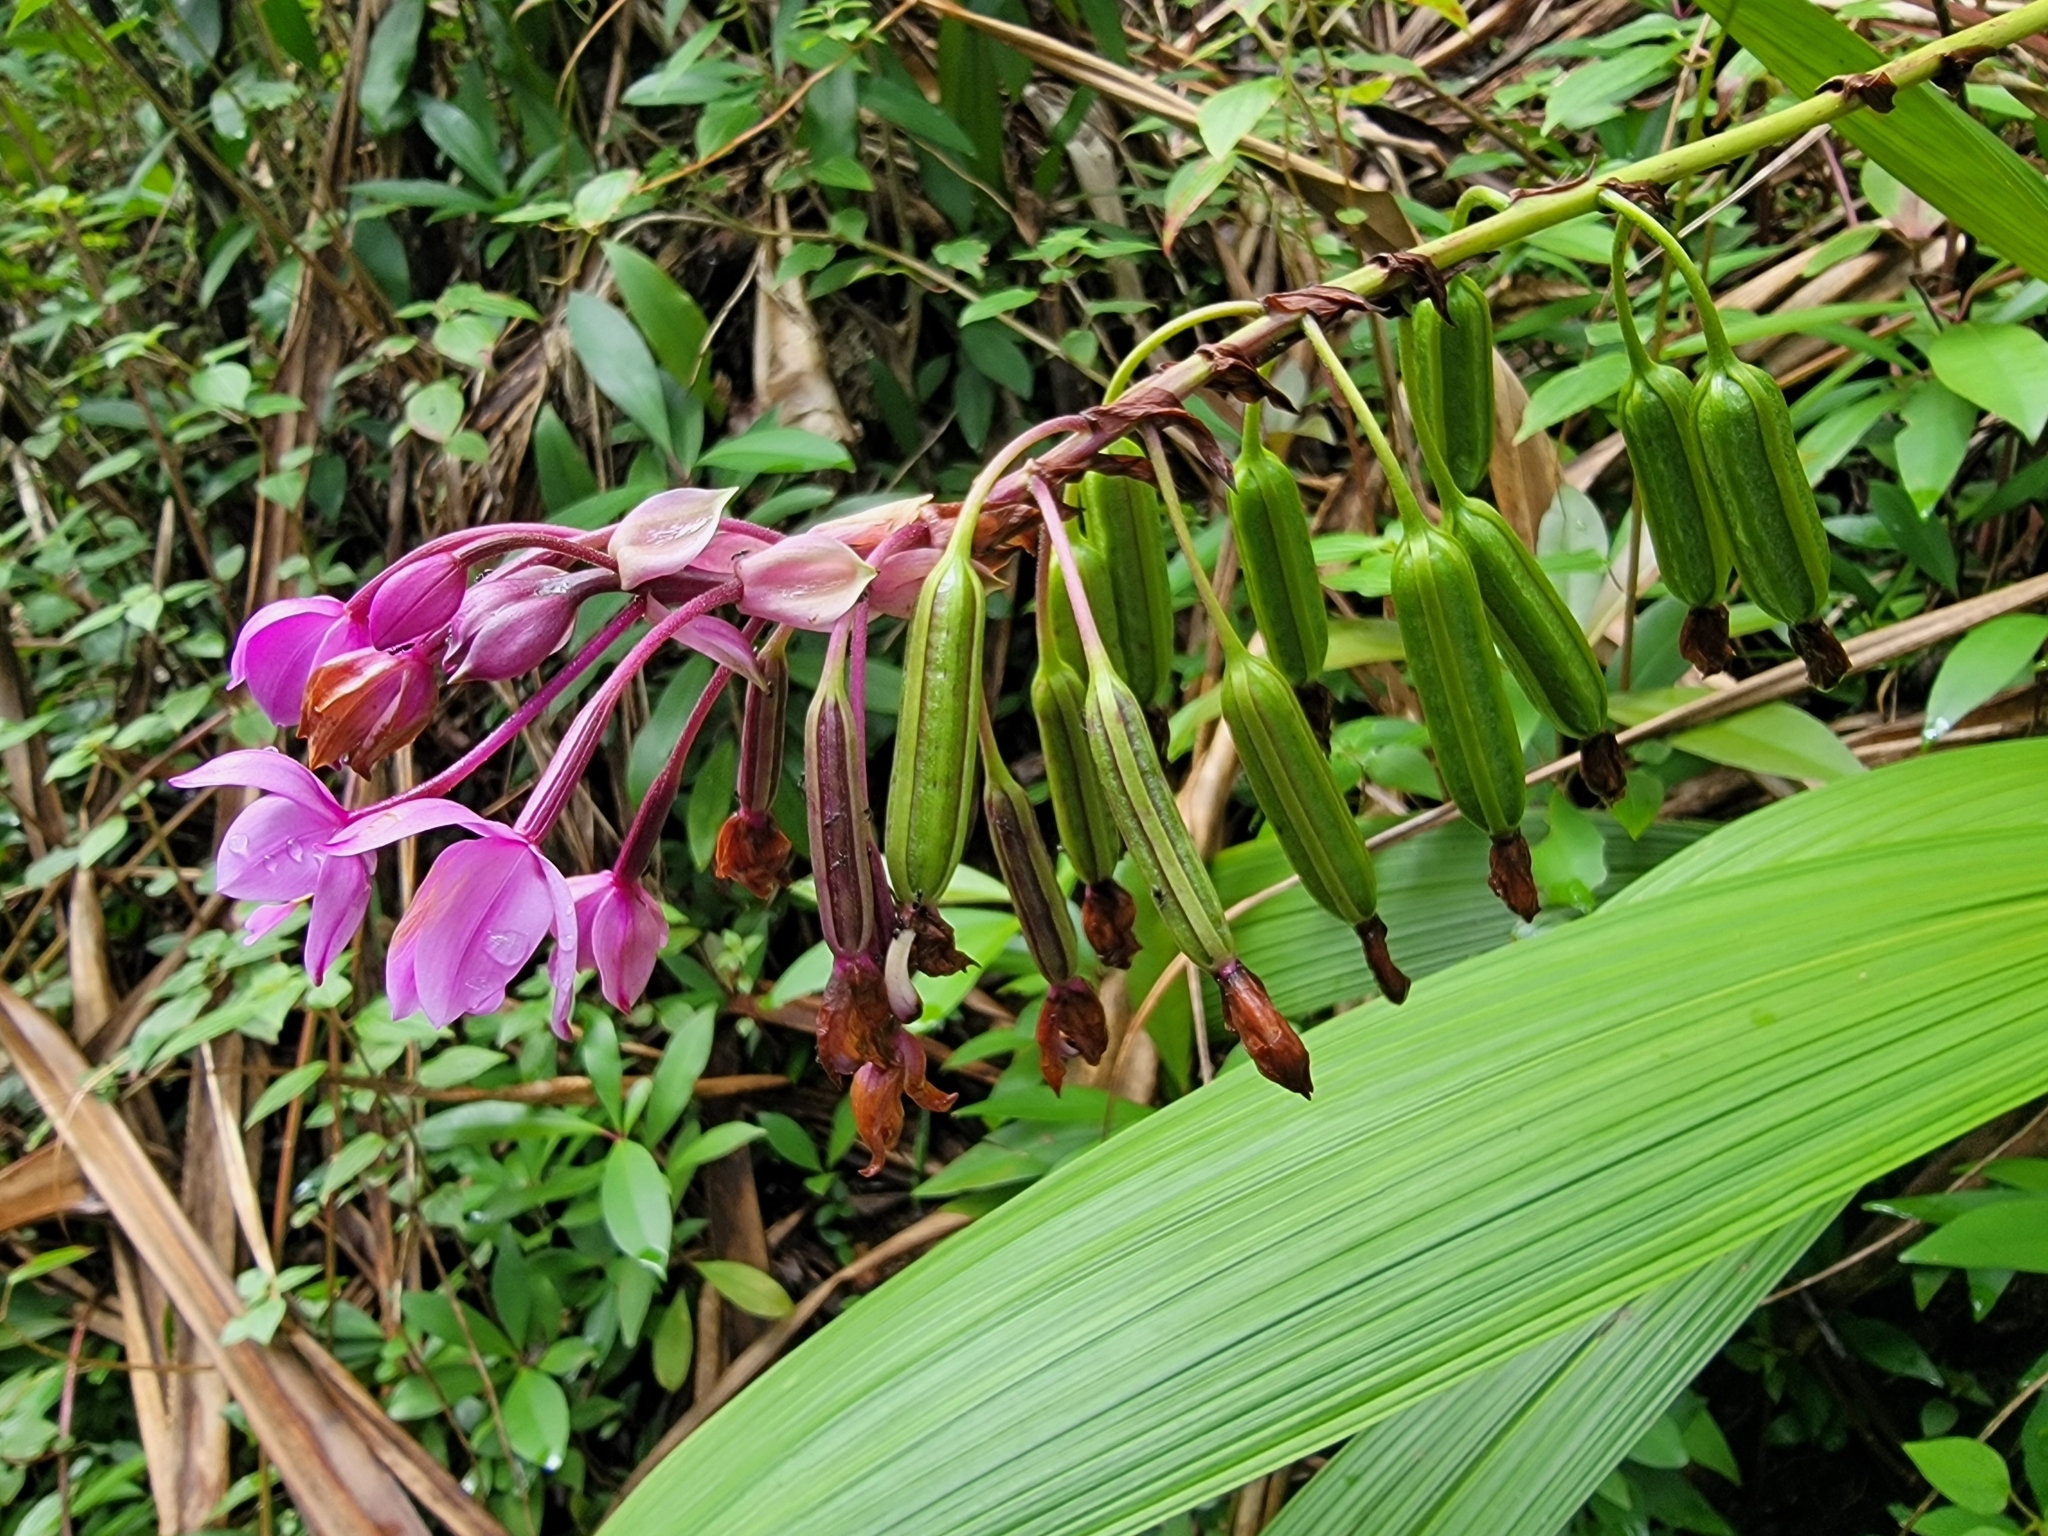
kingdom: Plantae
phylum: Tracheophyta
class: Liliopsida
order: Asparagales
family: Orchidaceae
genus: Spathoglottis
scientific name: Spathoglottis plicata
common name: Philippine ground orchid
